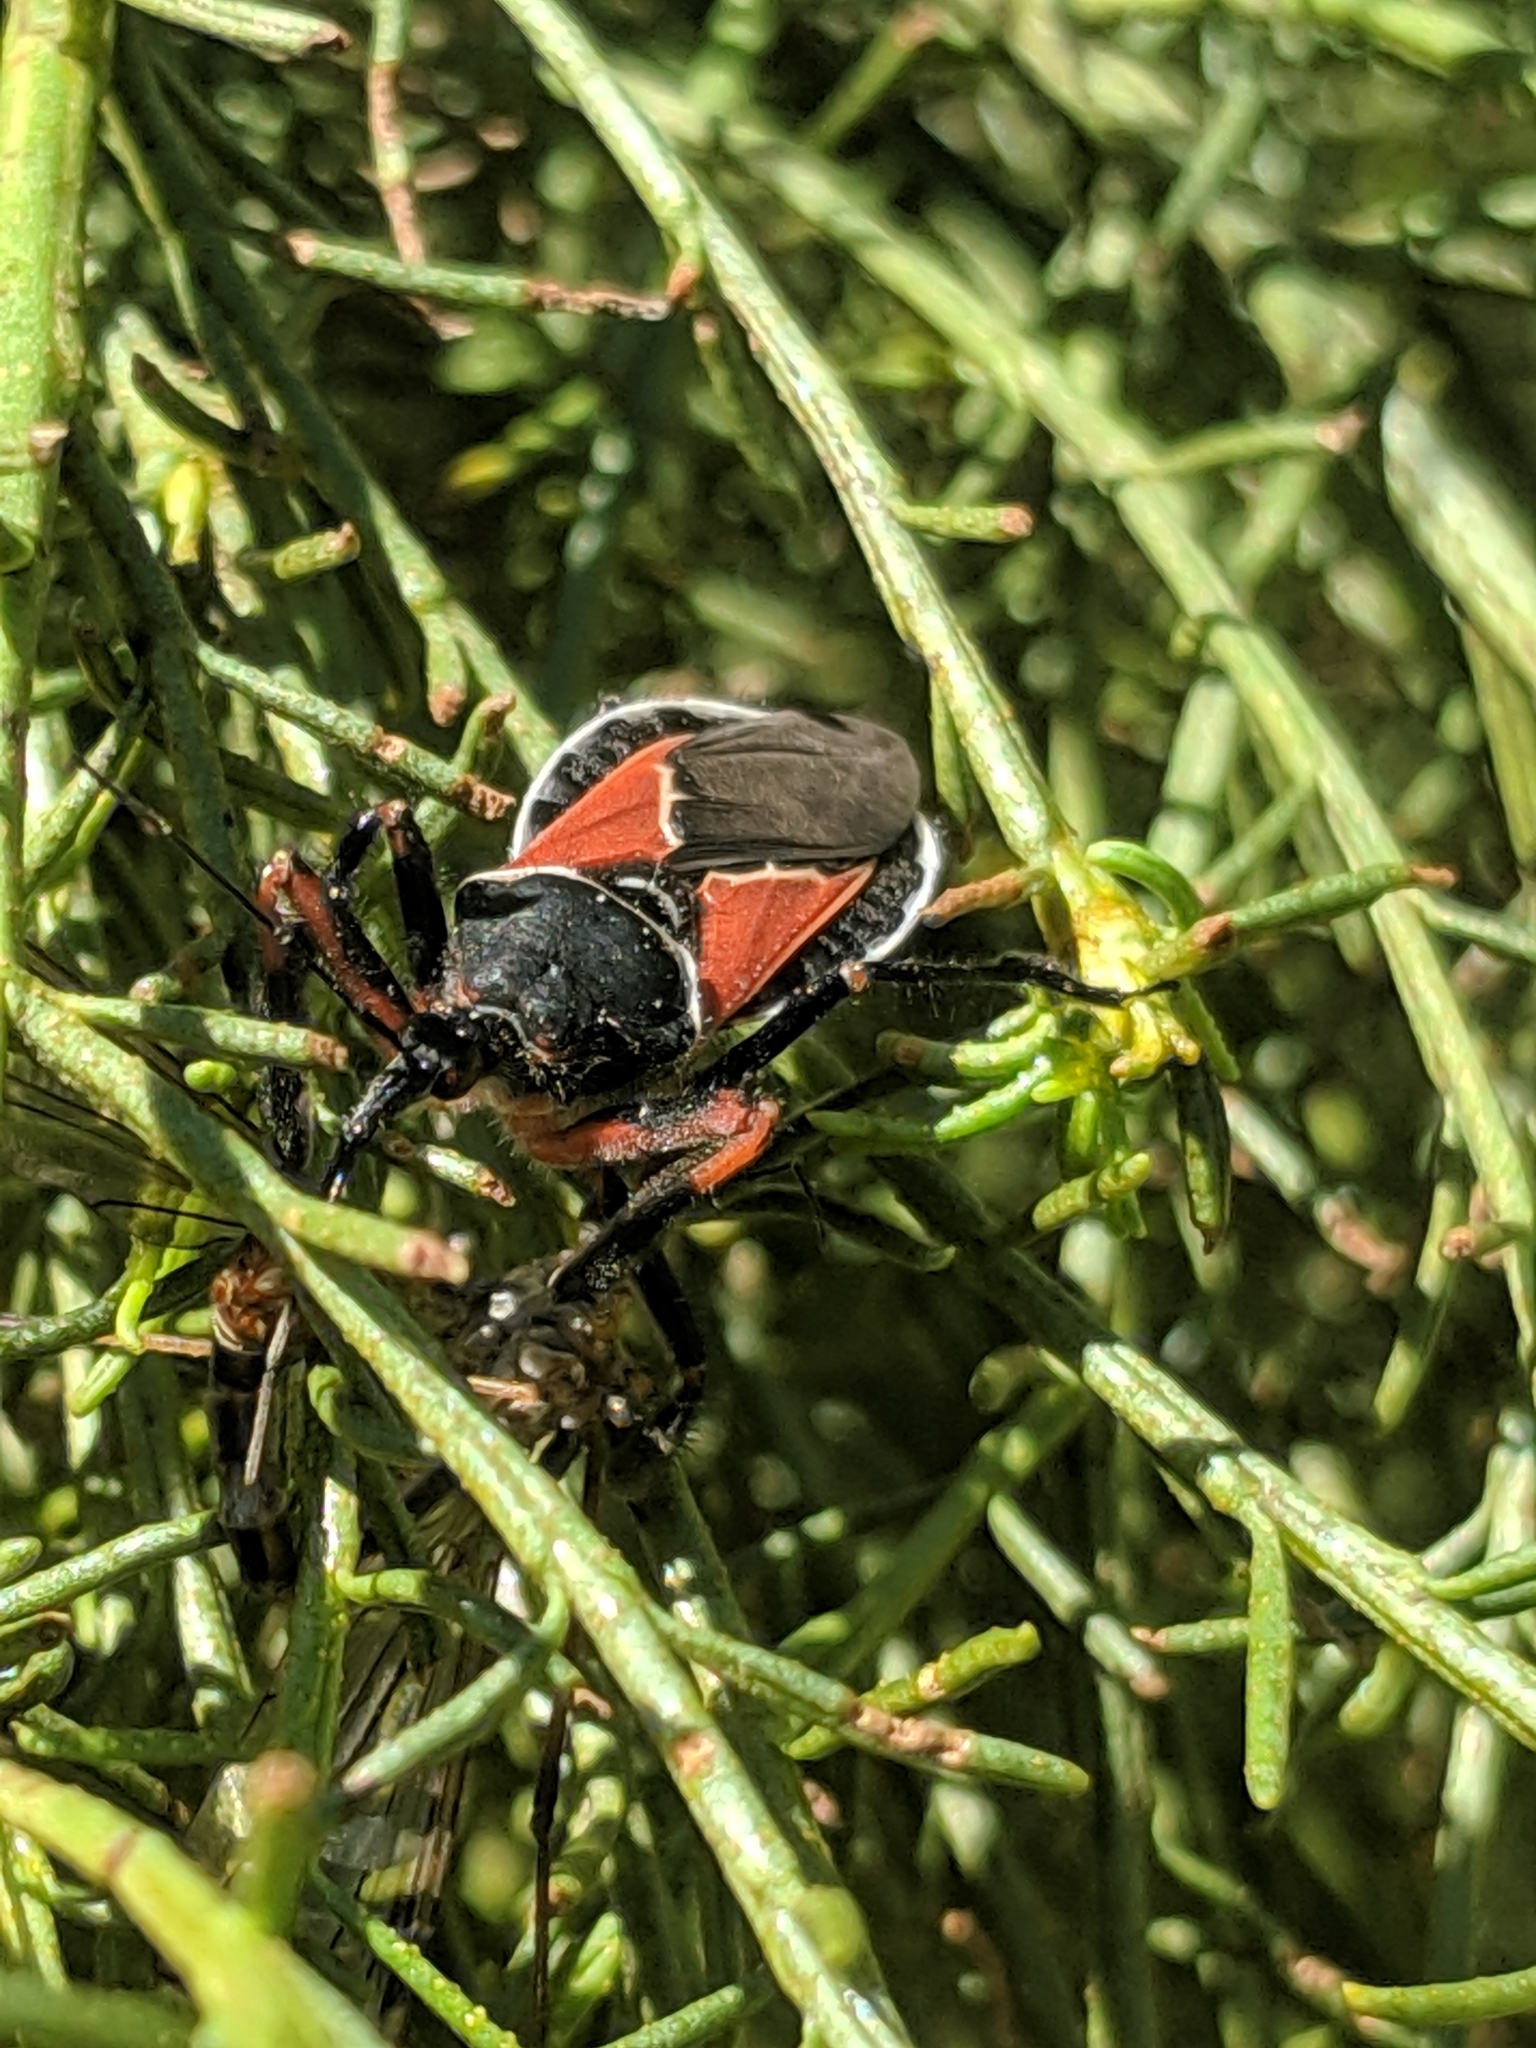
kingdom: Animalia
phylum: Arthropoda
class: Insecta
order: Hemiptera
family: Reduviidae
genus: Apiomerus
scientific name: Apiomerus californicus
